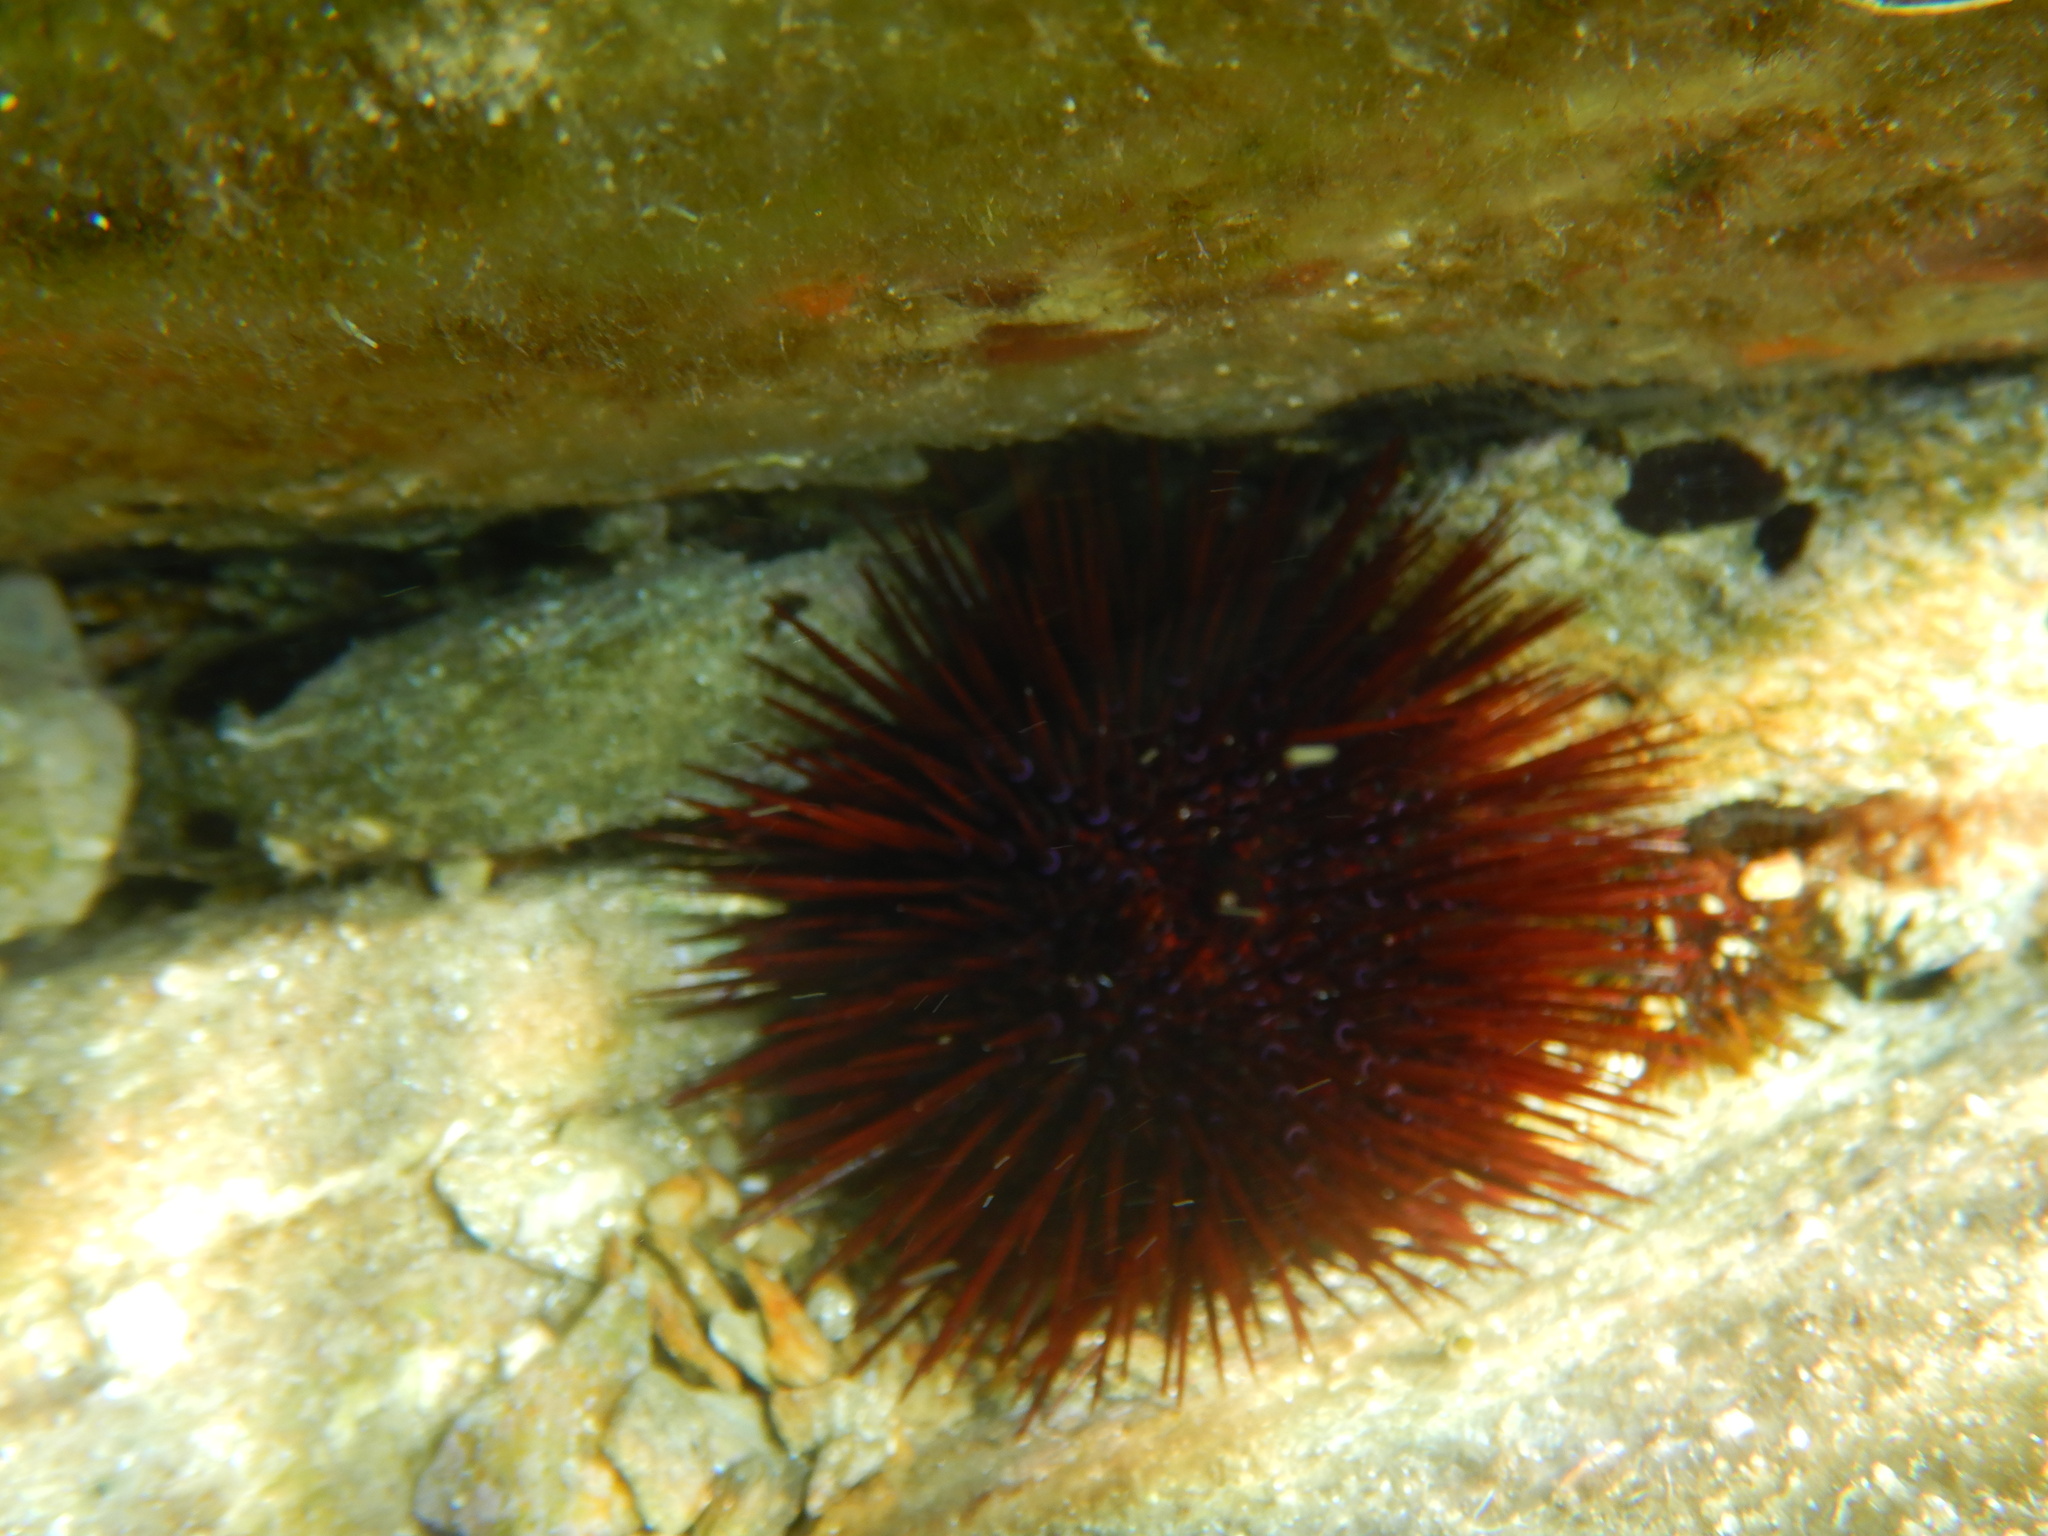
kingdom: Animalia
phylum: Echinodermata
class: Echinoidea
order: Camarodonta
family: Parechinidae
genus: Paracentrotus
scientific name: Paracentrotus lividus
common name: Purple sea urchin
